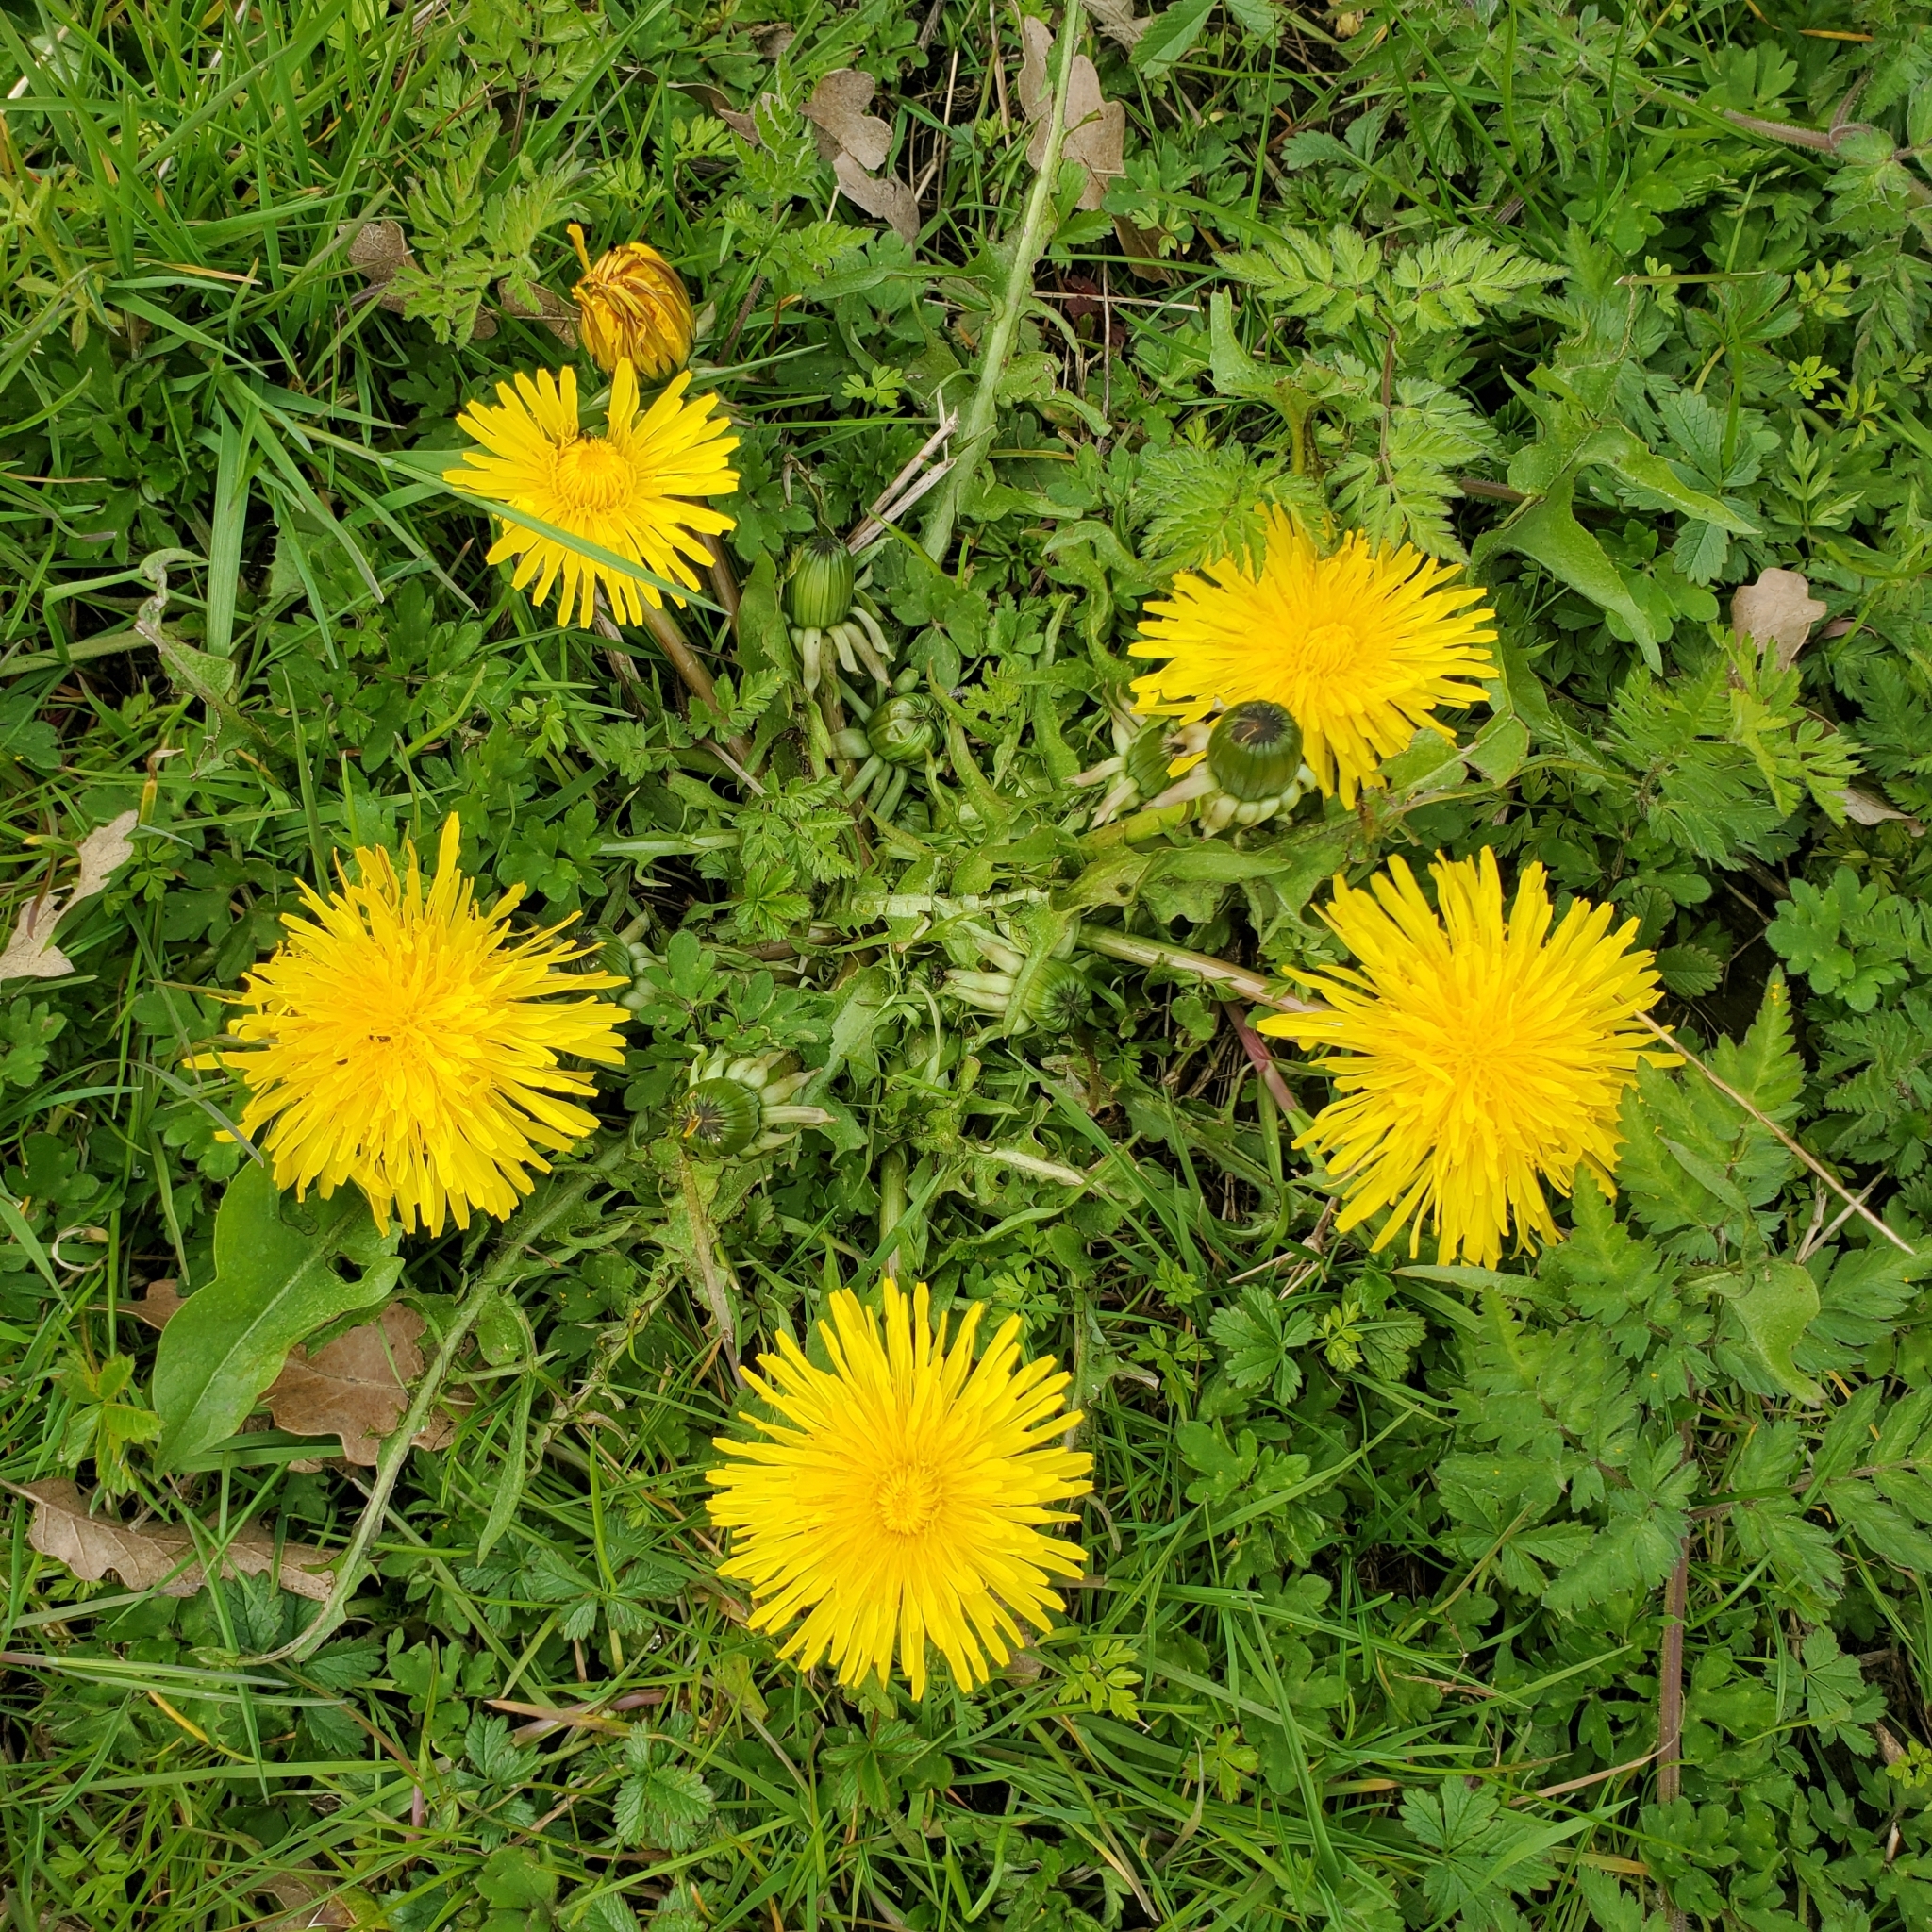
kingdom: Plantae
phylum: Tracheophyta
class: Magnoliopsida
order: Asterales
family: Asteraceae
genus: Taraxacum
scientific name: Taraxacum officinale
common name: Common dandelion
